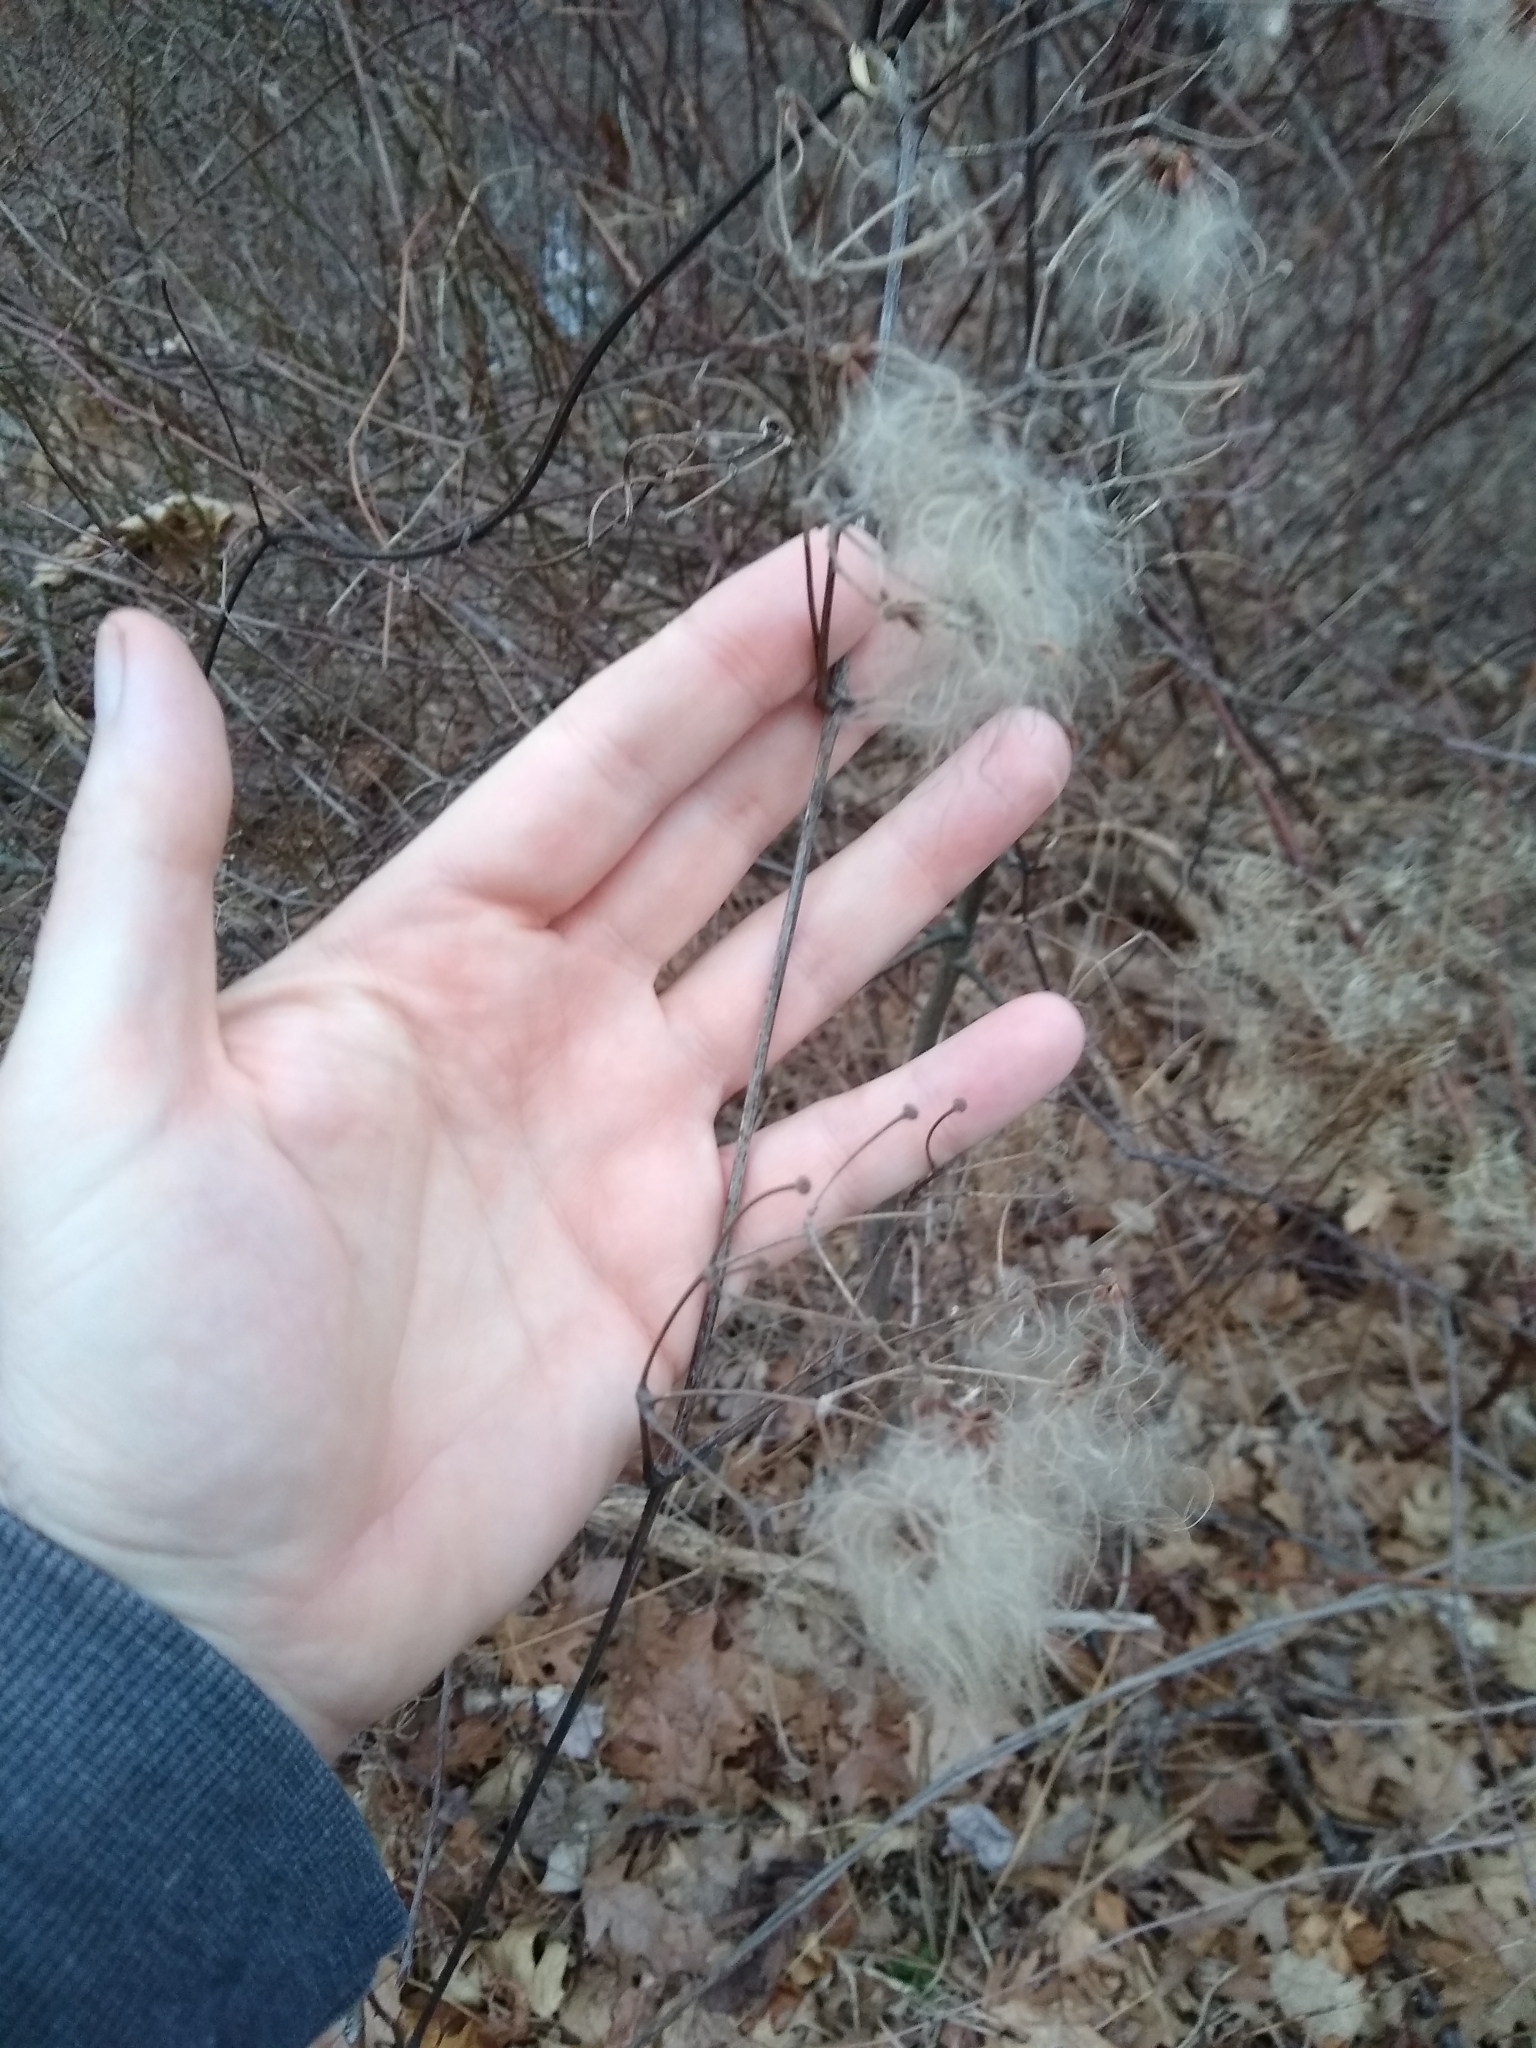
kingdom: Plantae
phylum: Tracheophyta
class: Magnoliopsida
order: Ranunculales
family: Ranunculaceae
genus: Clematis
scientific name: Clematis virginiana
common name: Virgin's-bower
